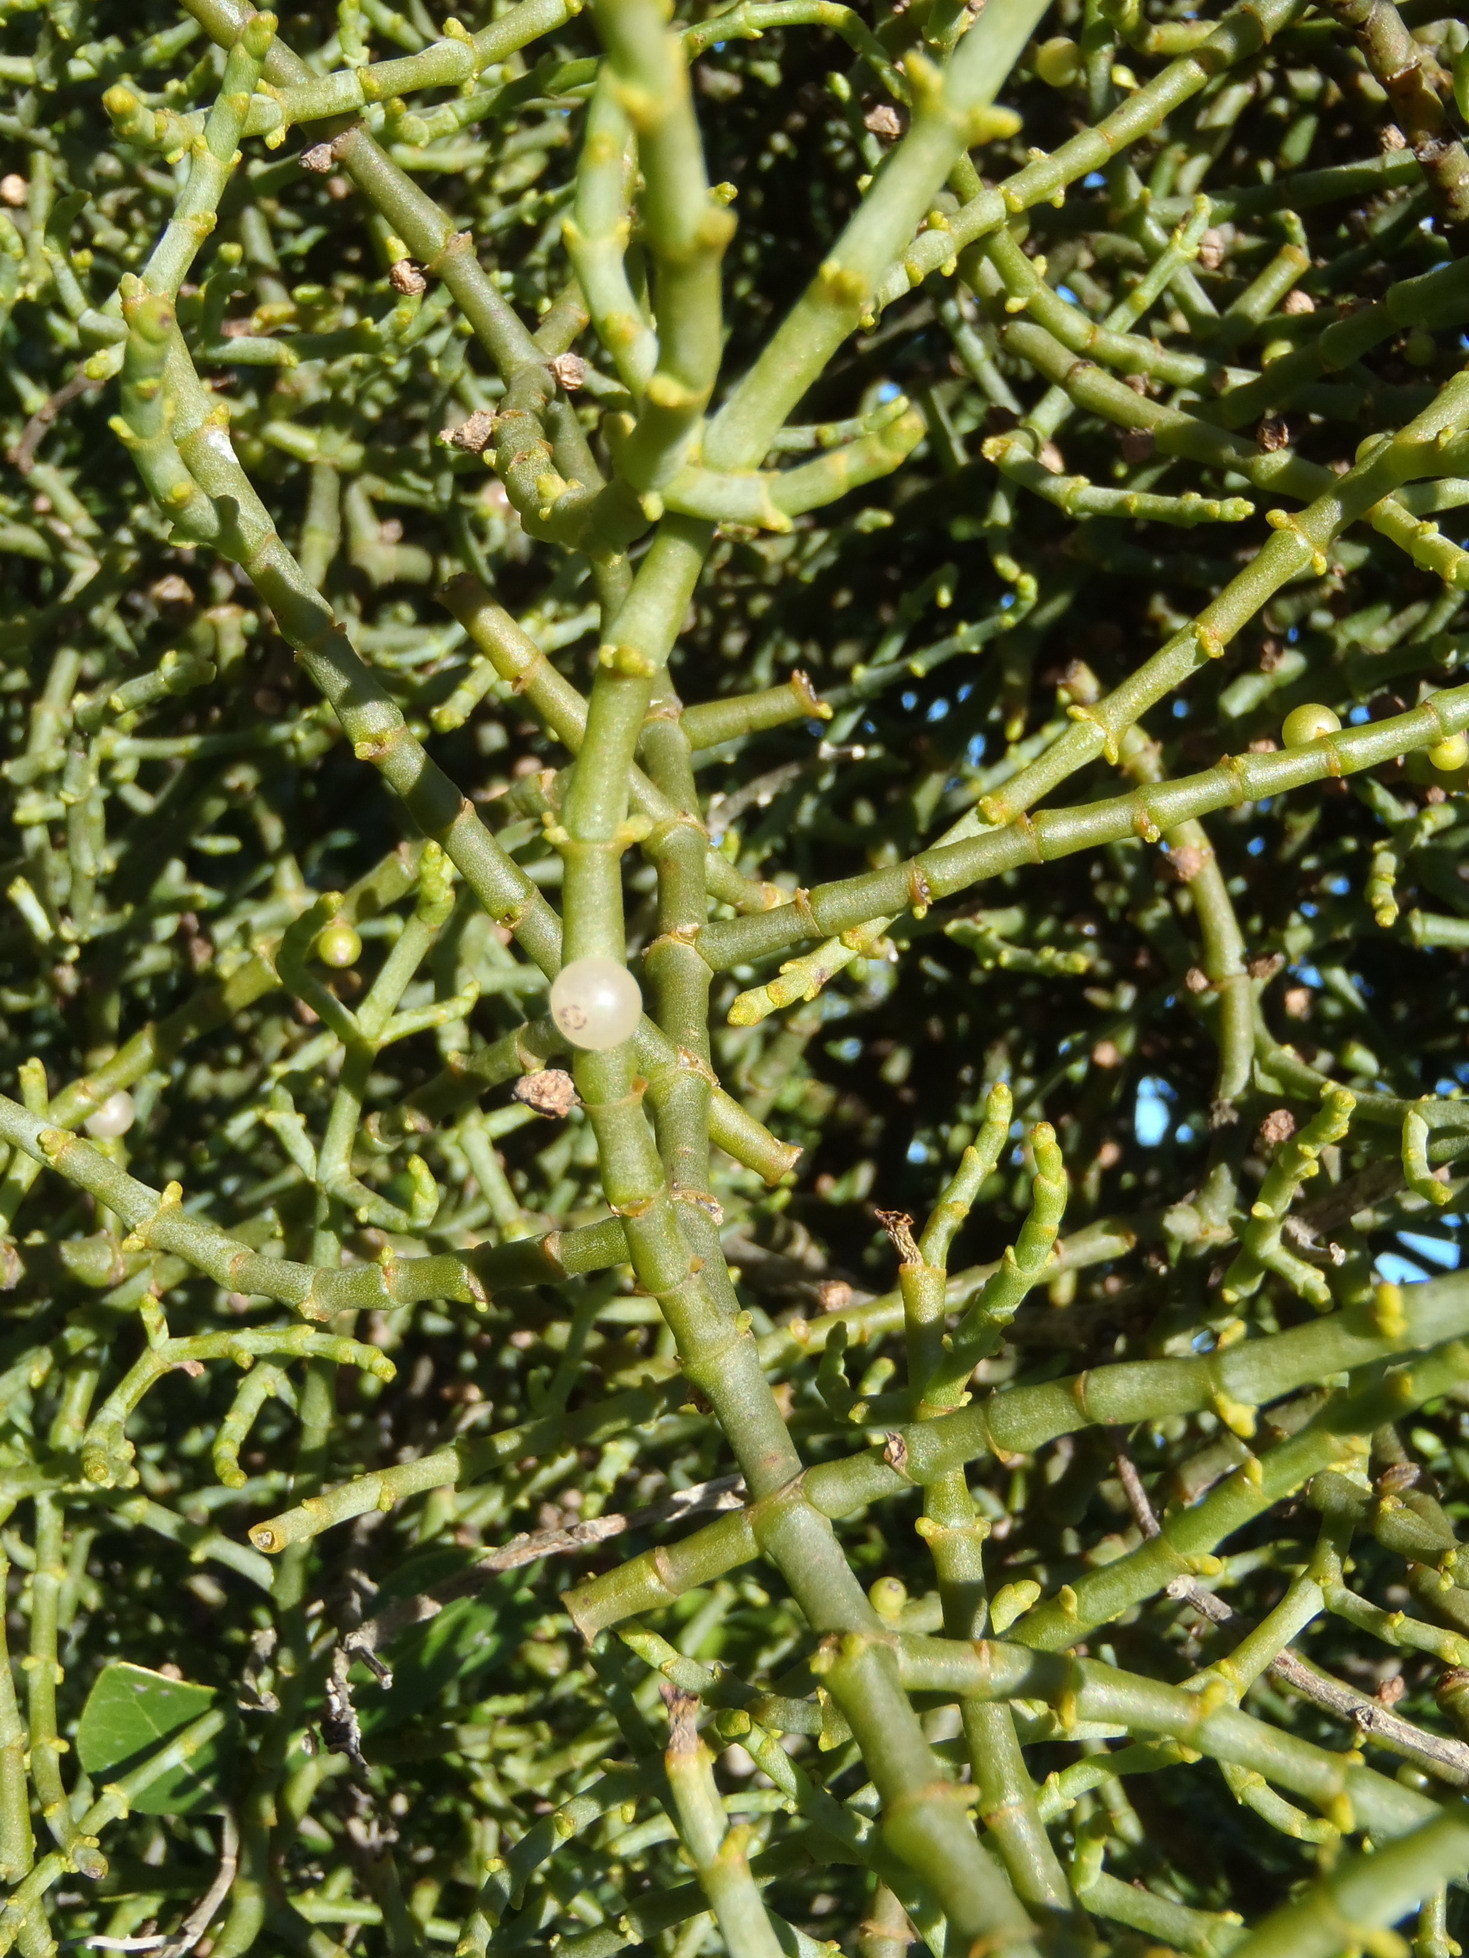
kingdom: Plantae
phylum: Tracheophyta
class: Magnoliopsida
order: Santalales
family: Viscaceae
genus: Viscum
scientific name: Viscum hoolei
